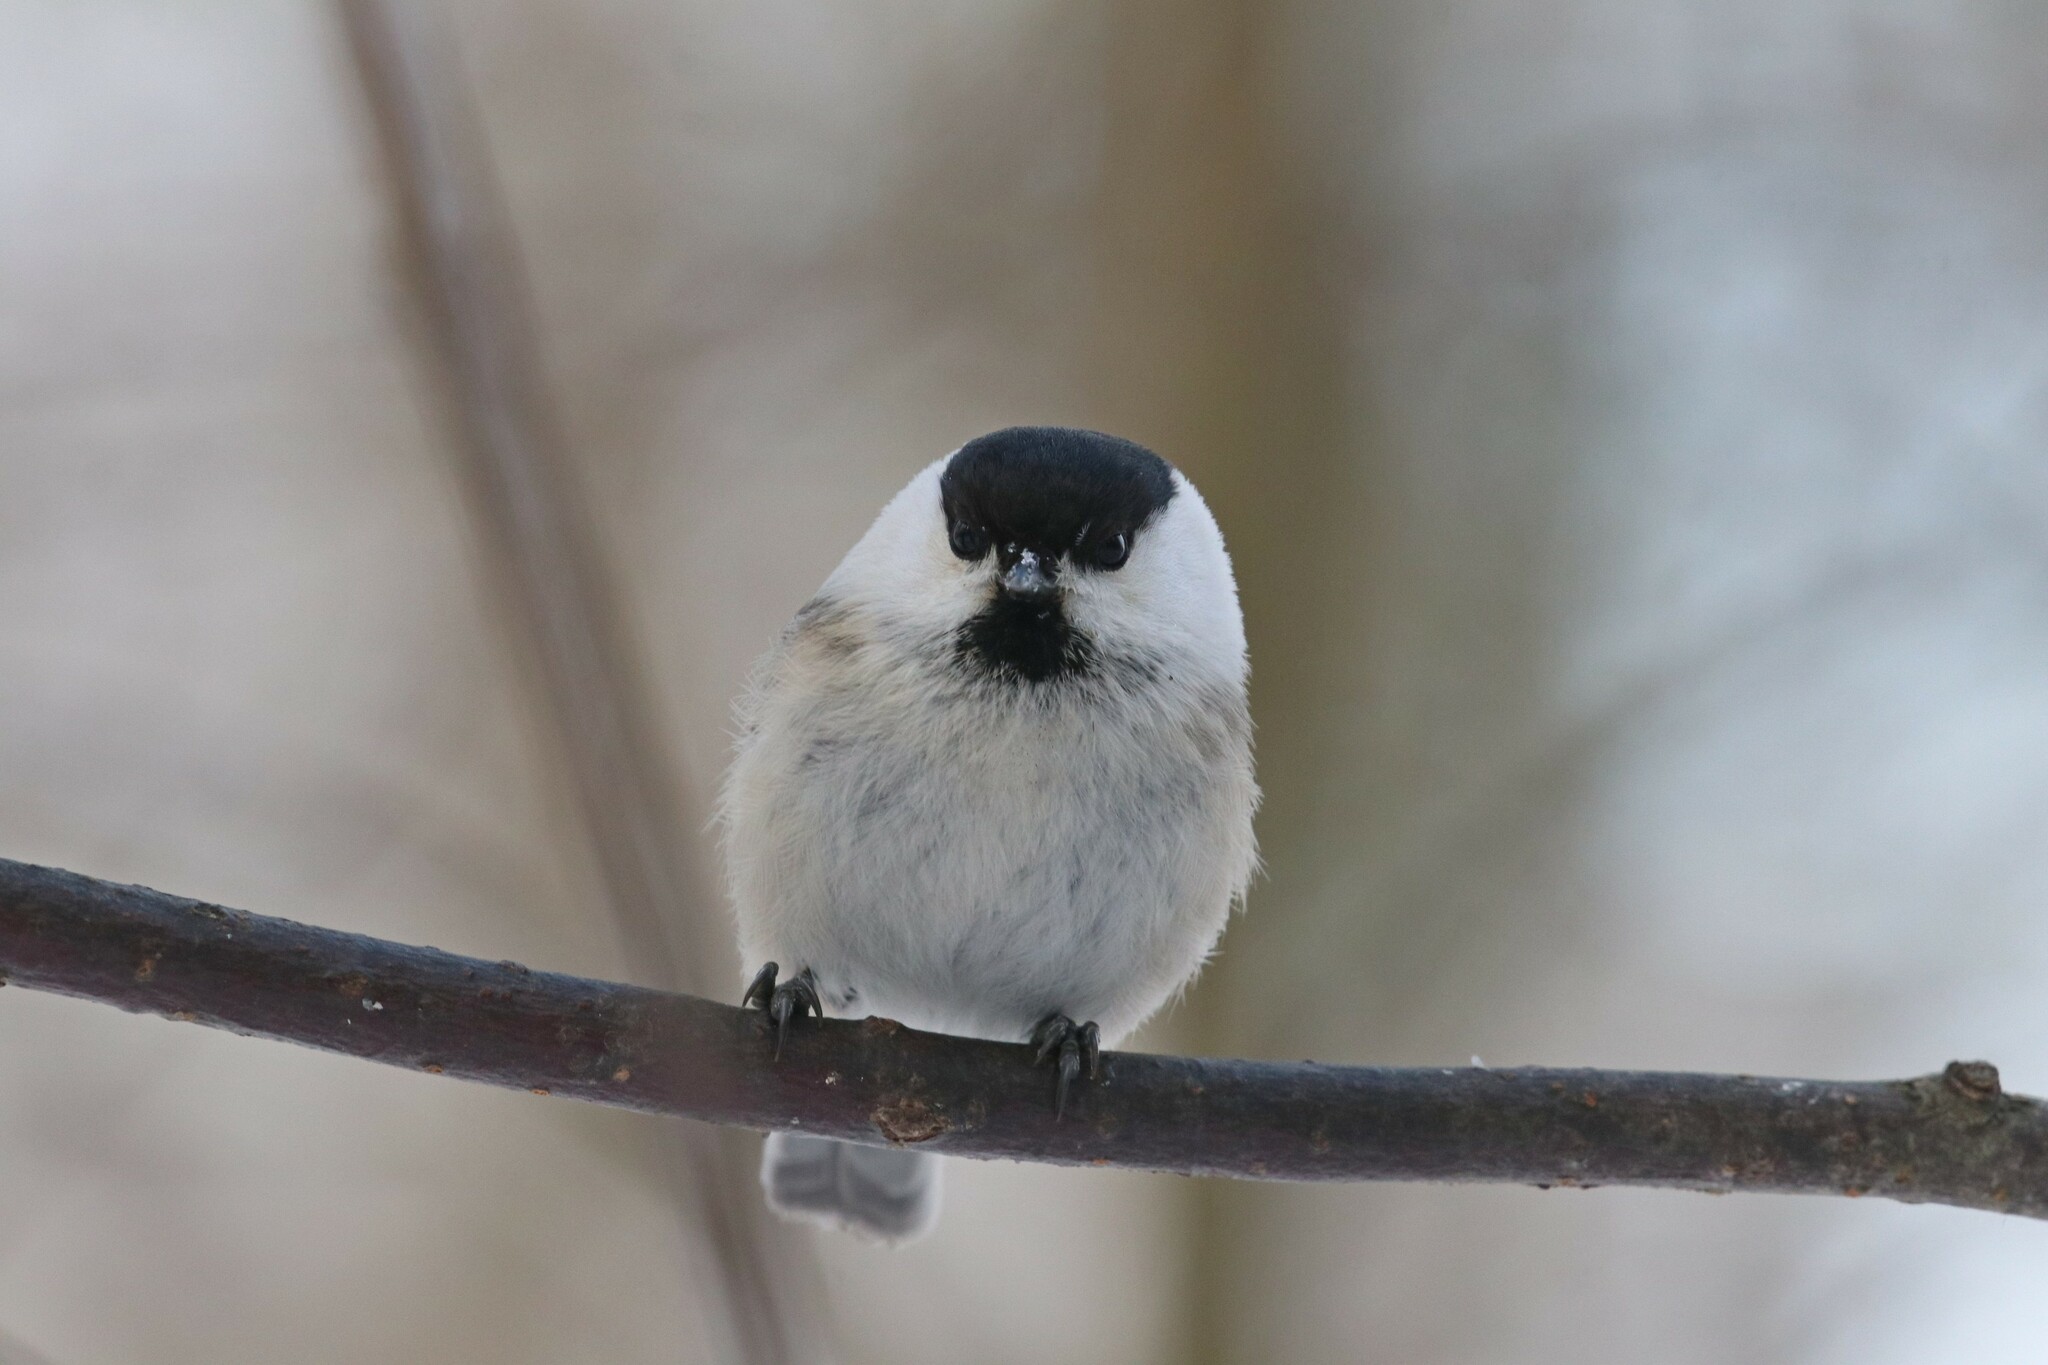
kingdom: Animalia
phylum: Chordata
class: Aves
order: Passeriformes
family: Paridae
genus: Poecile
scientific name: Poecile montanus
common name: Willow tit
